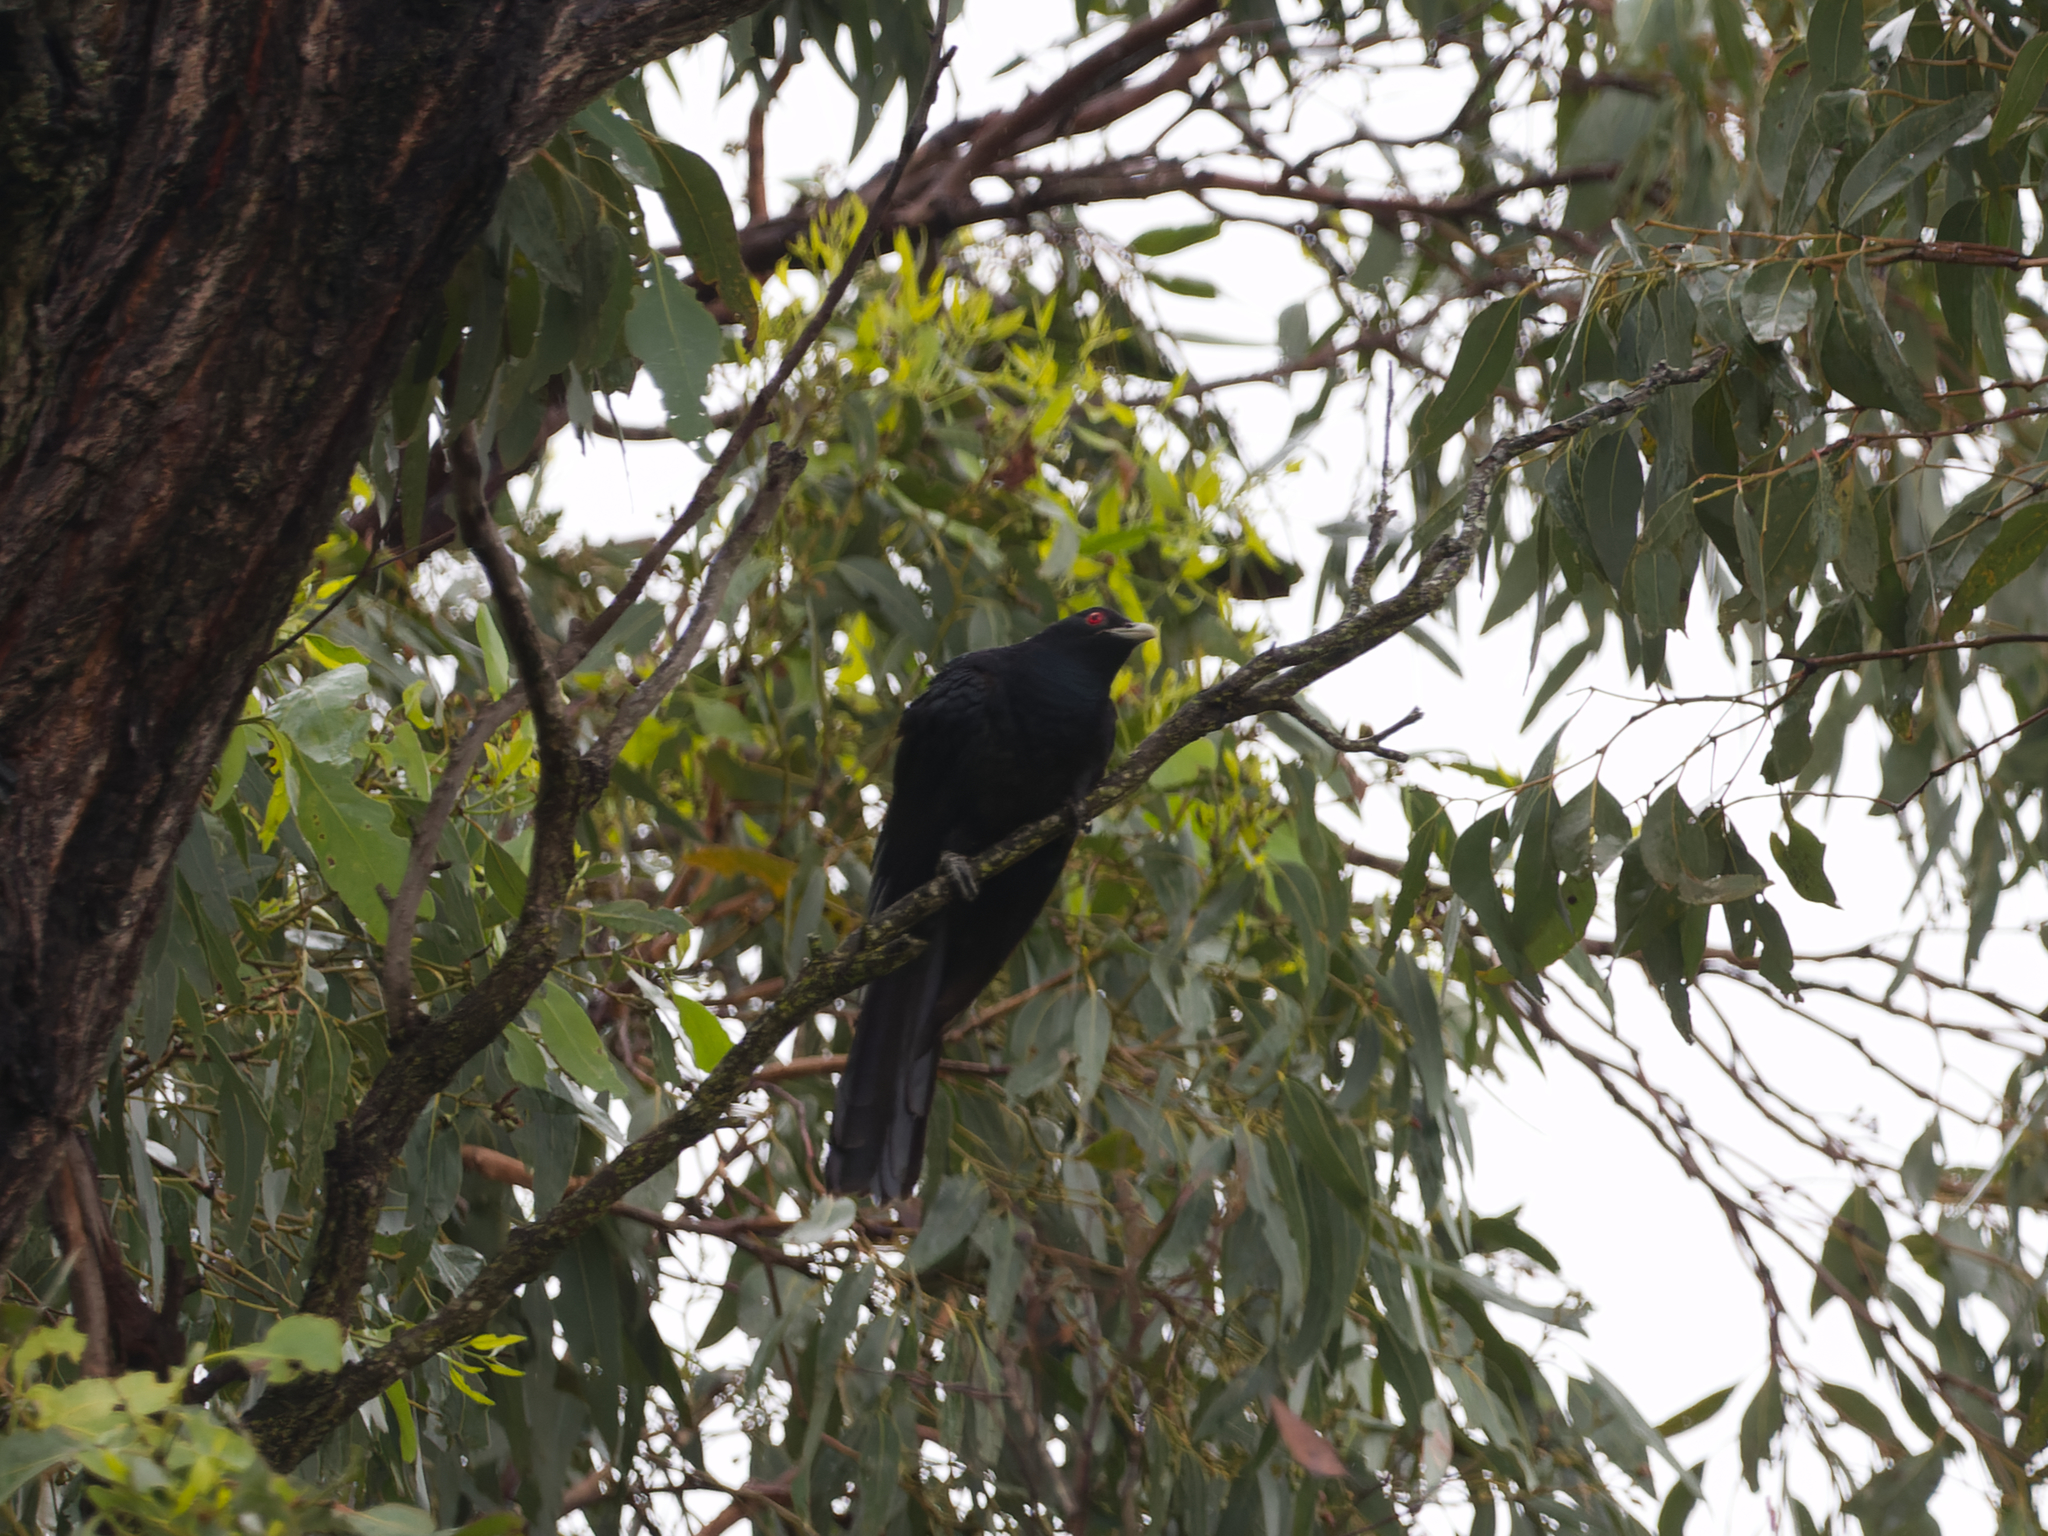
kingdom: Animalia
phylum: Chordata
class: Aves
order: Cuculiformes
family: Cuculidae
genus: Eudynamys
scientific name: Eudynamys orientalis
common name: Pacific koel
